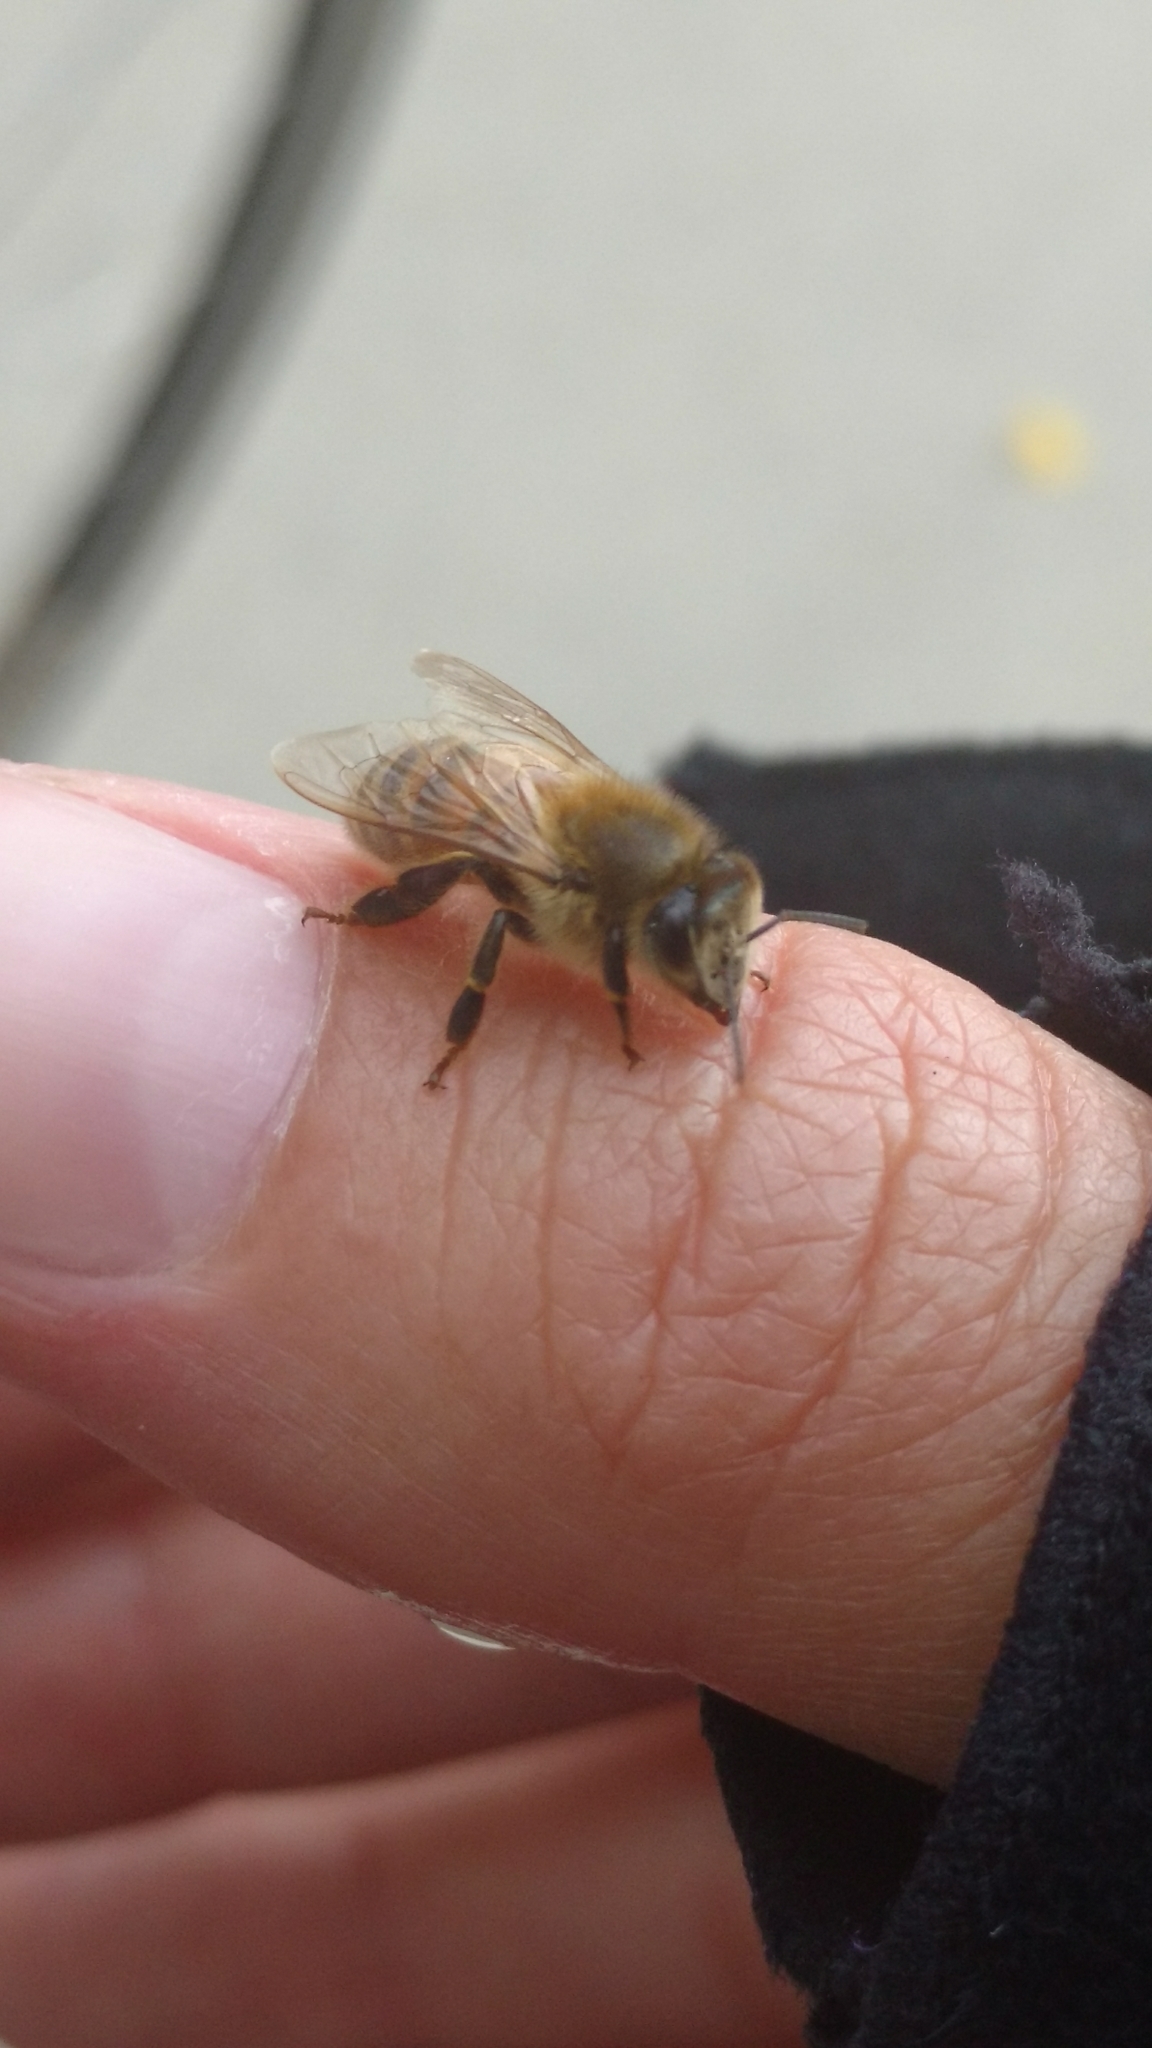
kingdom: Animalia
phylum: Arthropoda
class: Insecta
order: Hymenoptera
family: Apidae
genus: Apis
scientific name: Apis mellifera
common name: Honey bee
